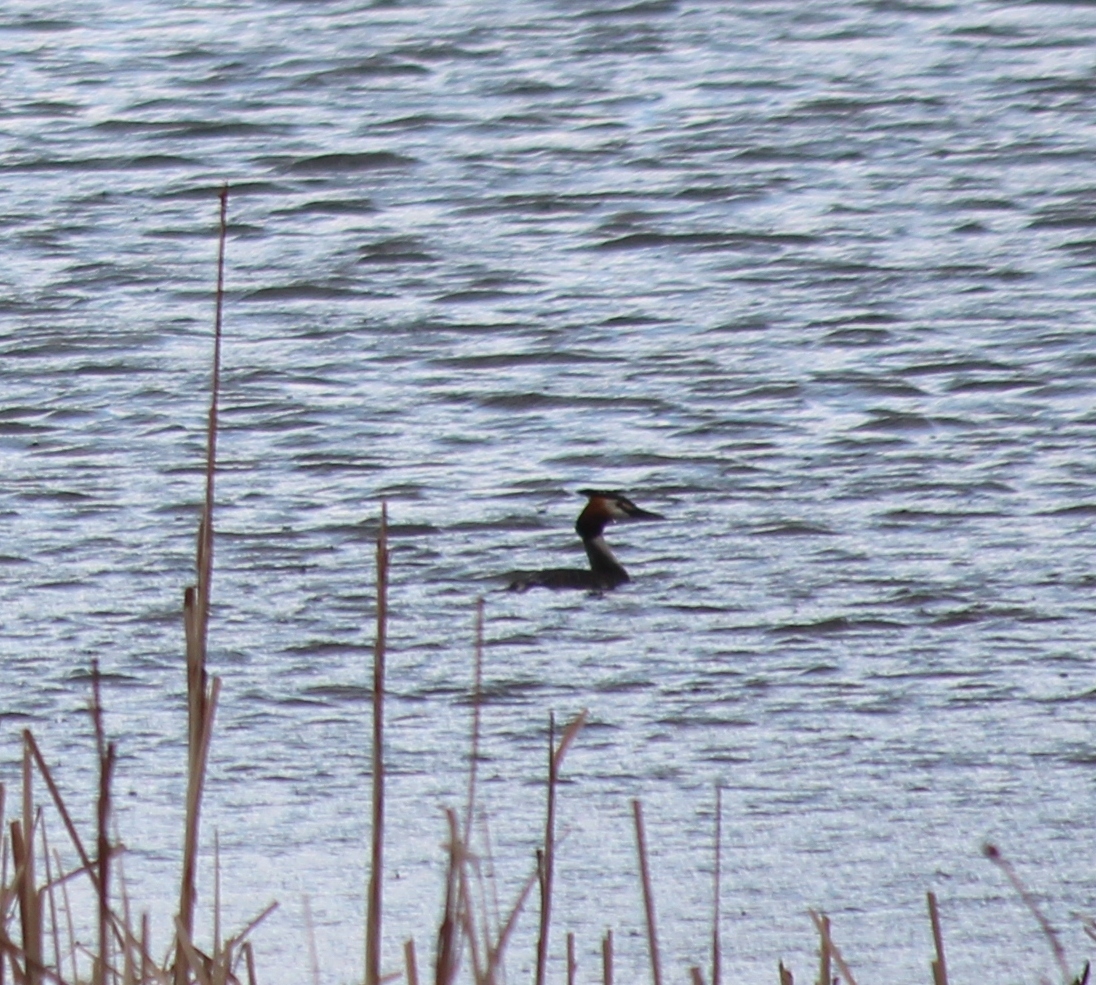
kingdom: Animalia
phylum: Chordata
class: Aves
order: Podicipediformes
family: Podicipedidae
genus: Podiceps
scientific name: Podiceps cristatus
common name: Great crested grebe
